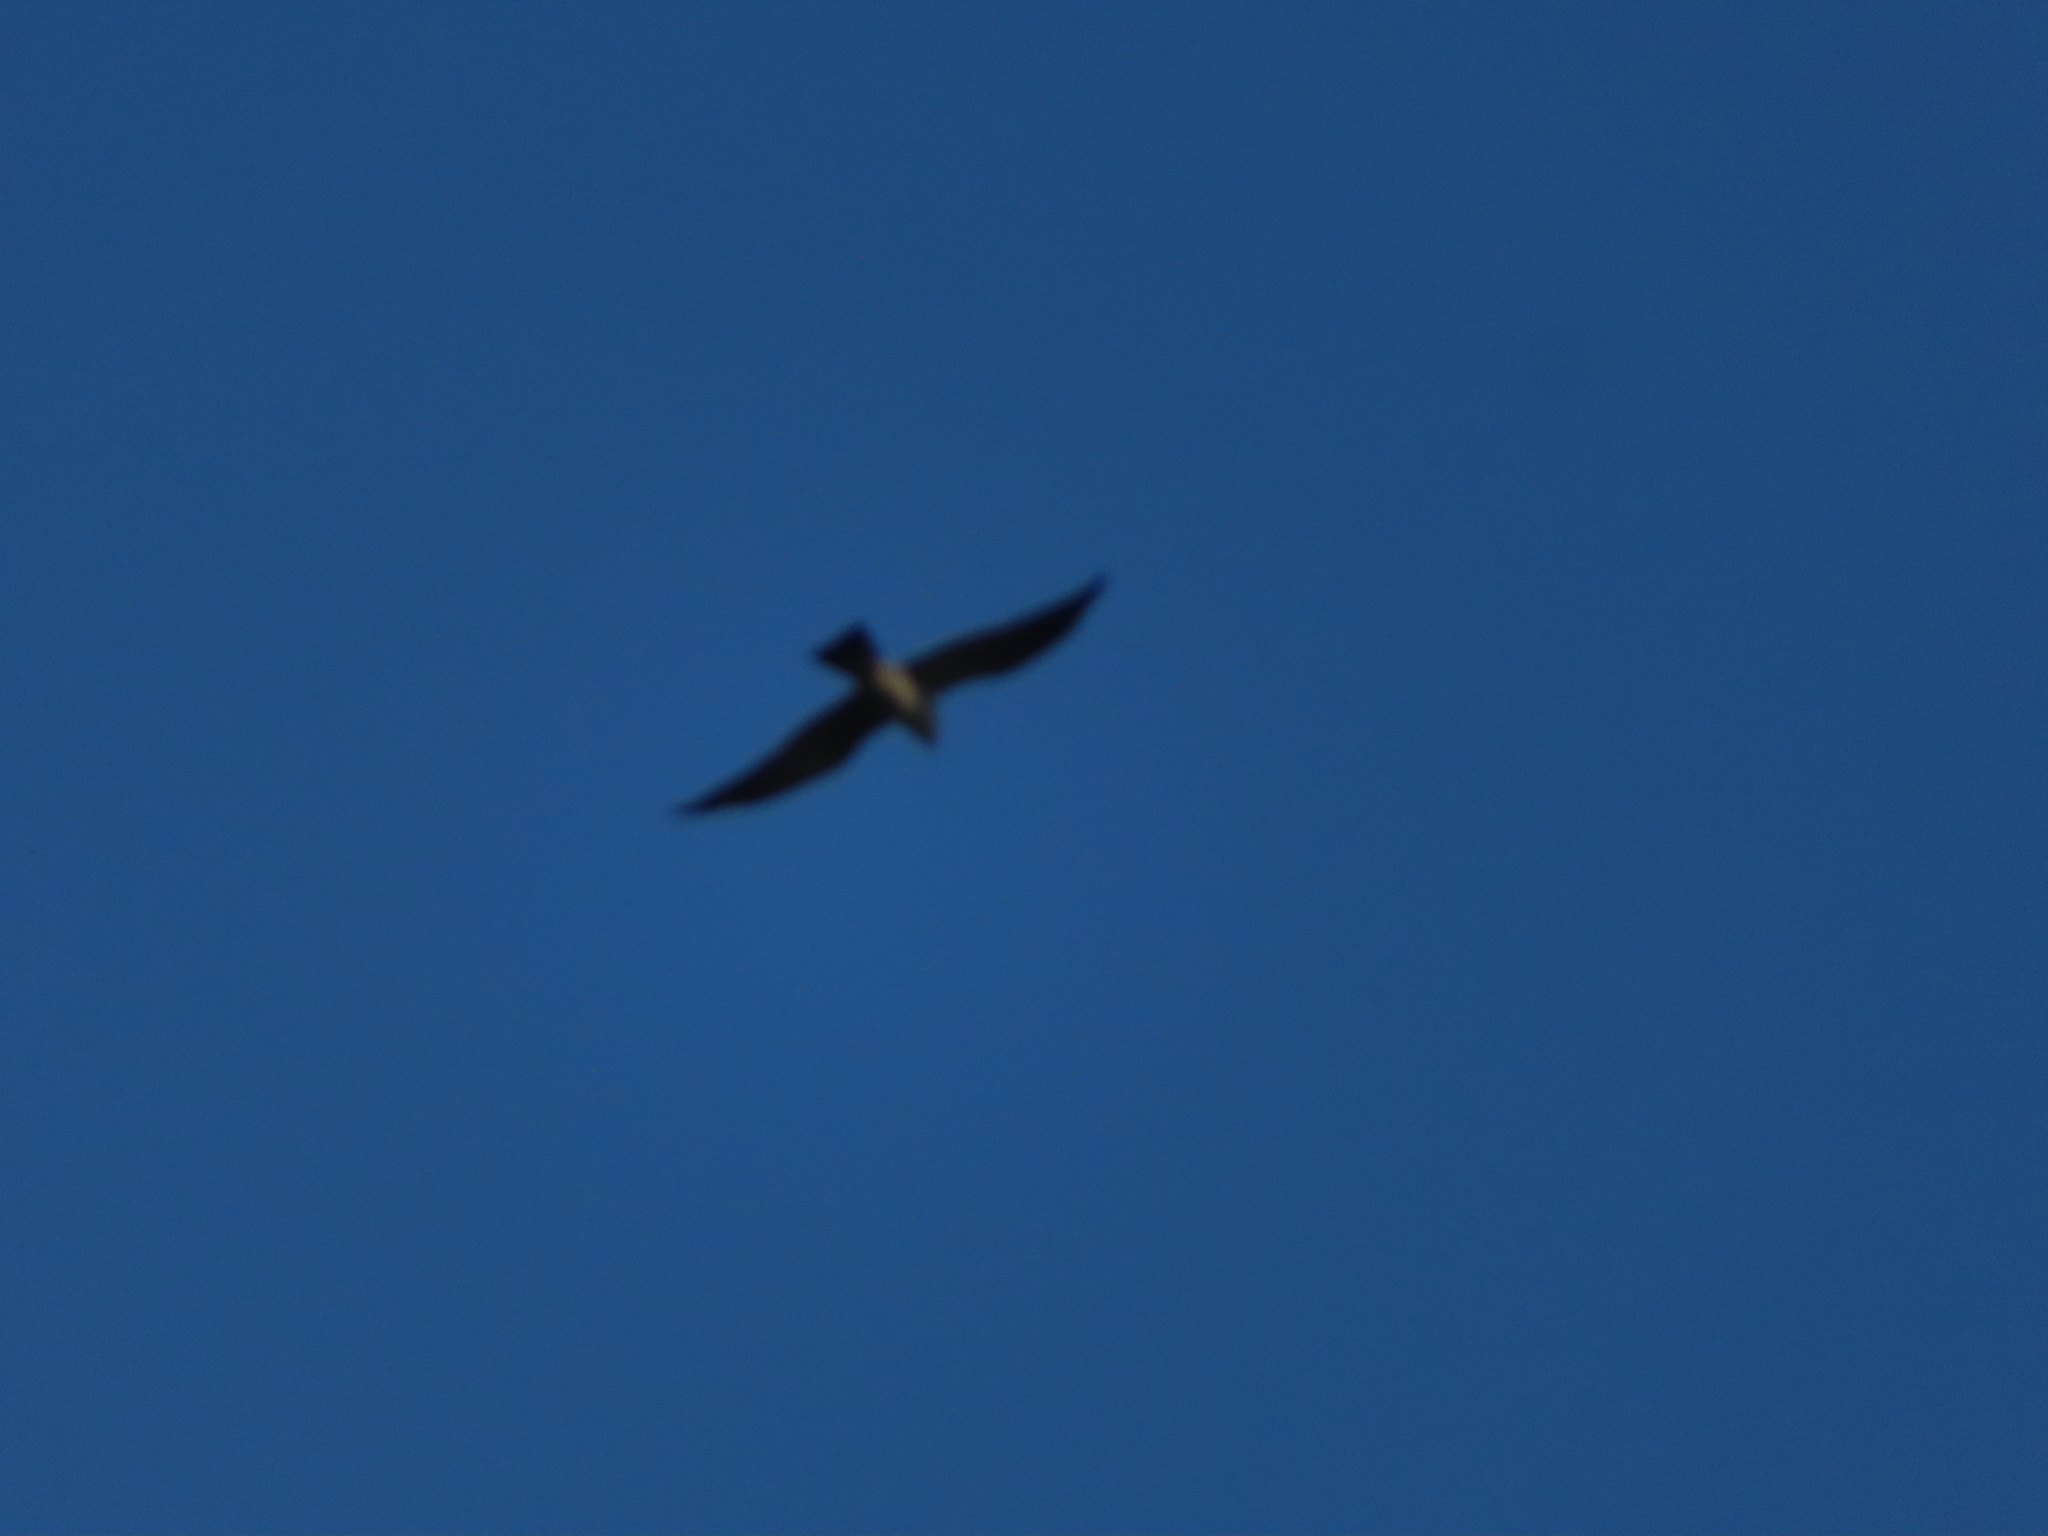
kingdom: Animalia
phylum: Chordata
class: Aves
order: Accipitriformes
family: Accipitridae
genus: Ictinia
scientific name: Ictinia mississippiensis
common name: Mississippi kite
